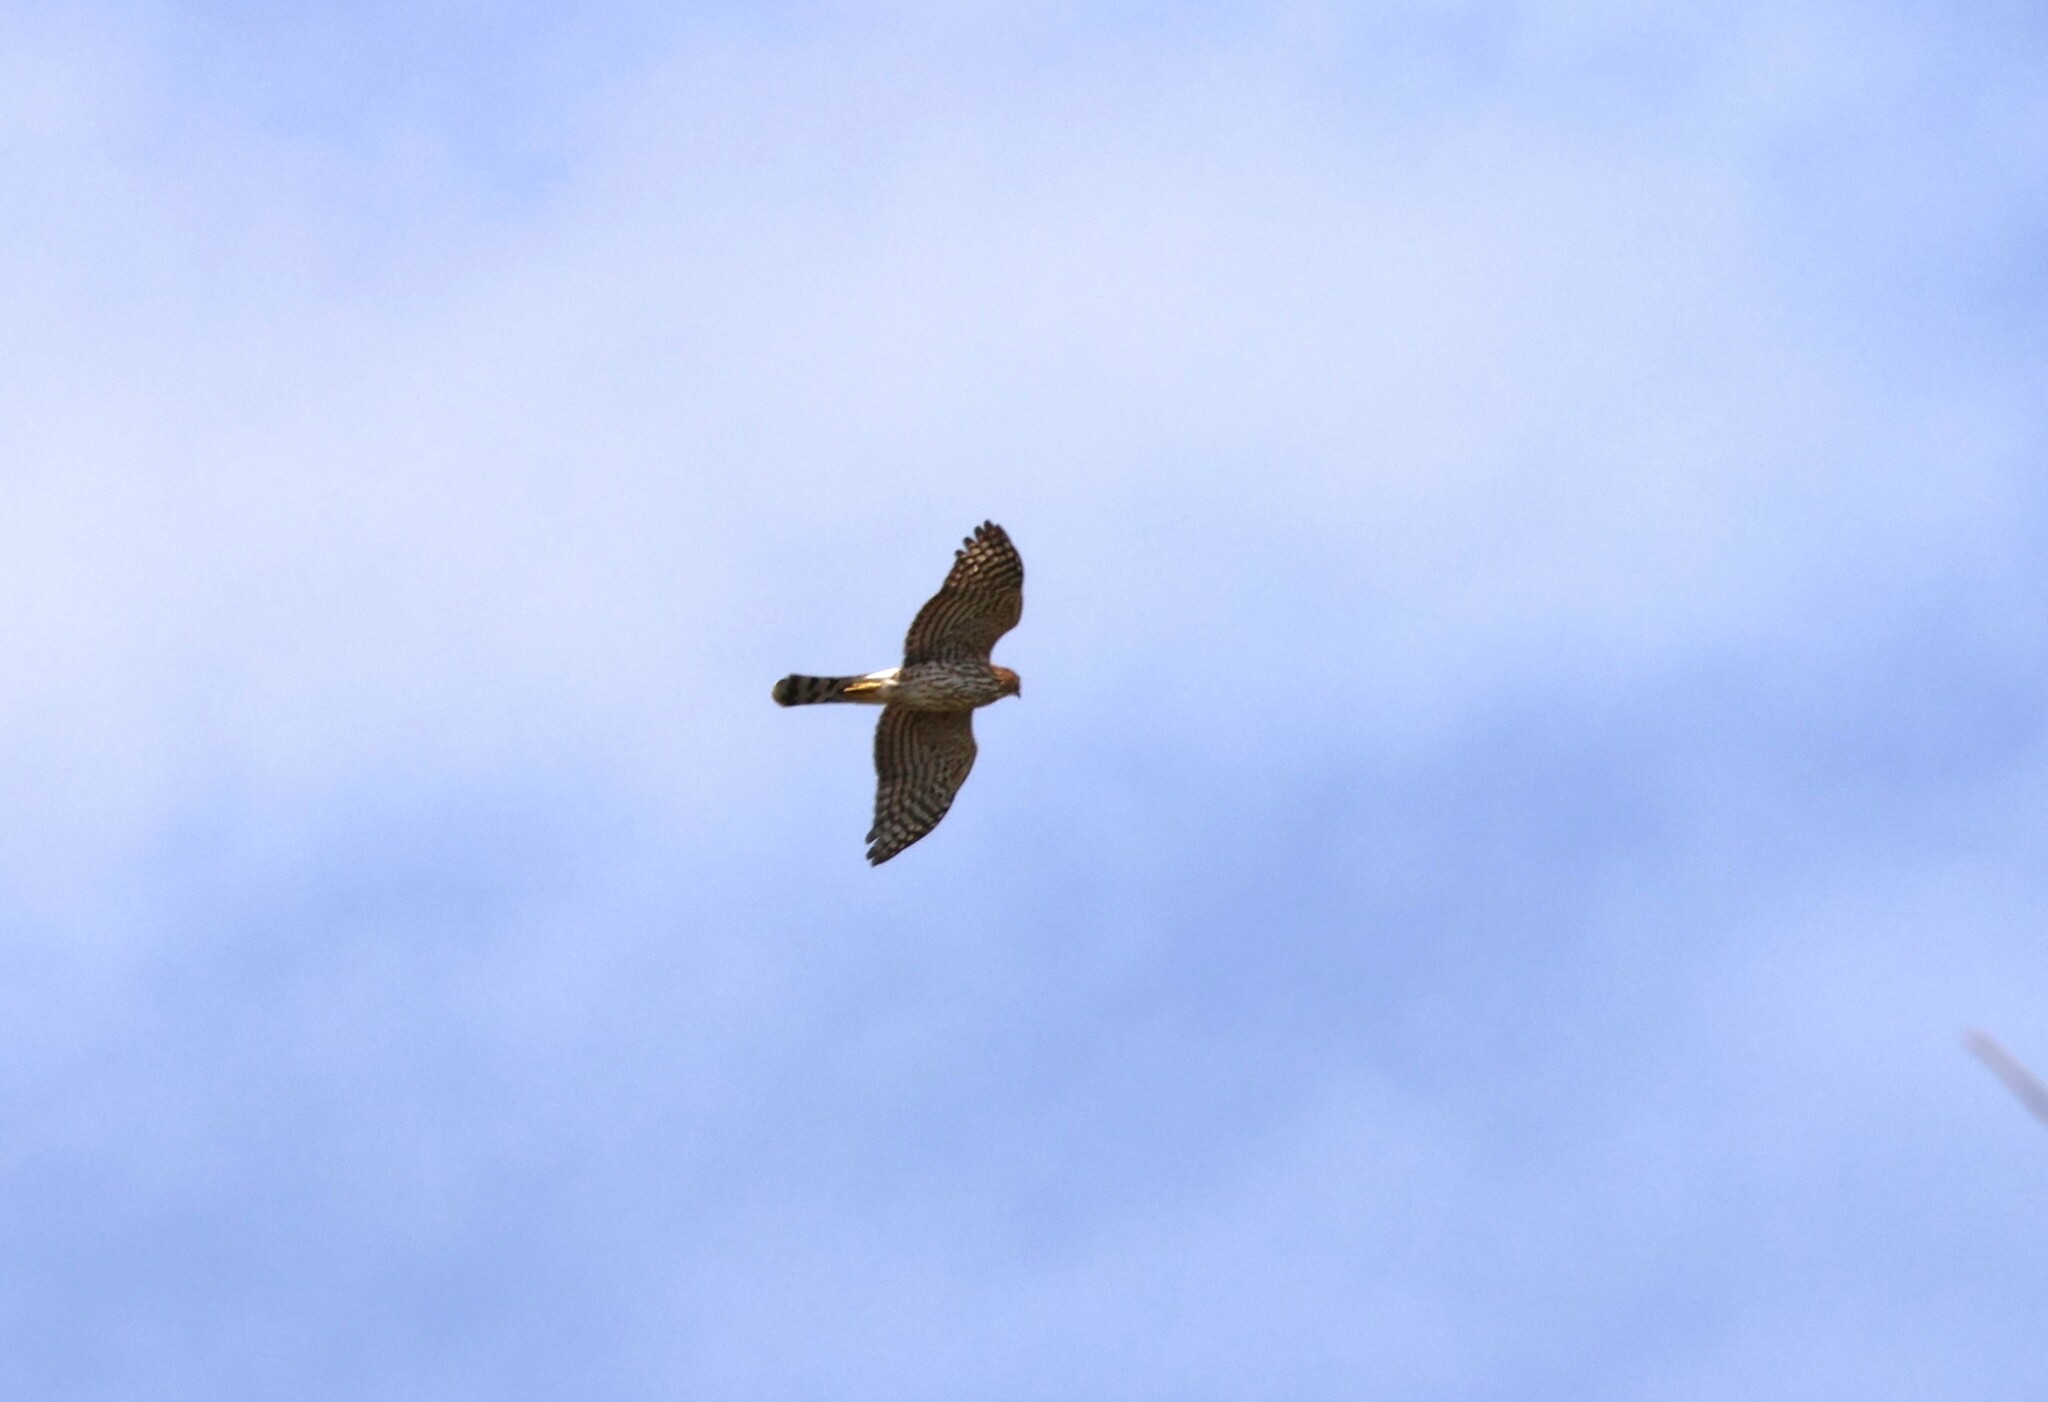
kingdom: Animalia
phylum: Chordata
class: Aves
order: Accipitriformes
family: Accipitridae
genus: Accipiter
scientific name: Accipiter cooperii
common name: Cooper's hawk
